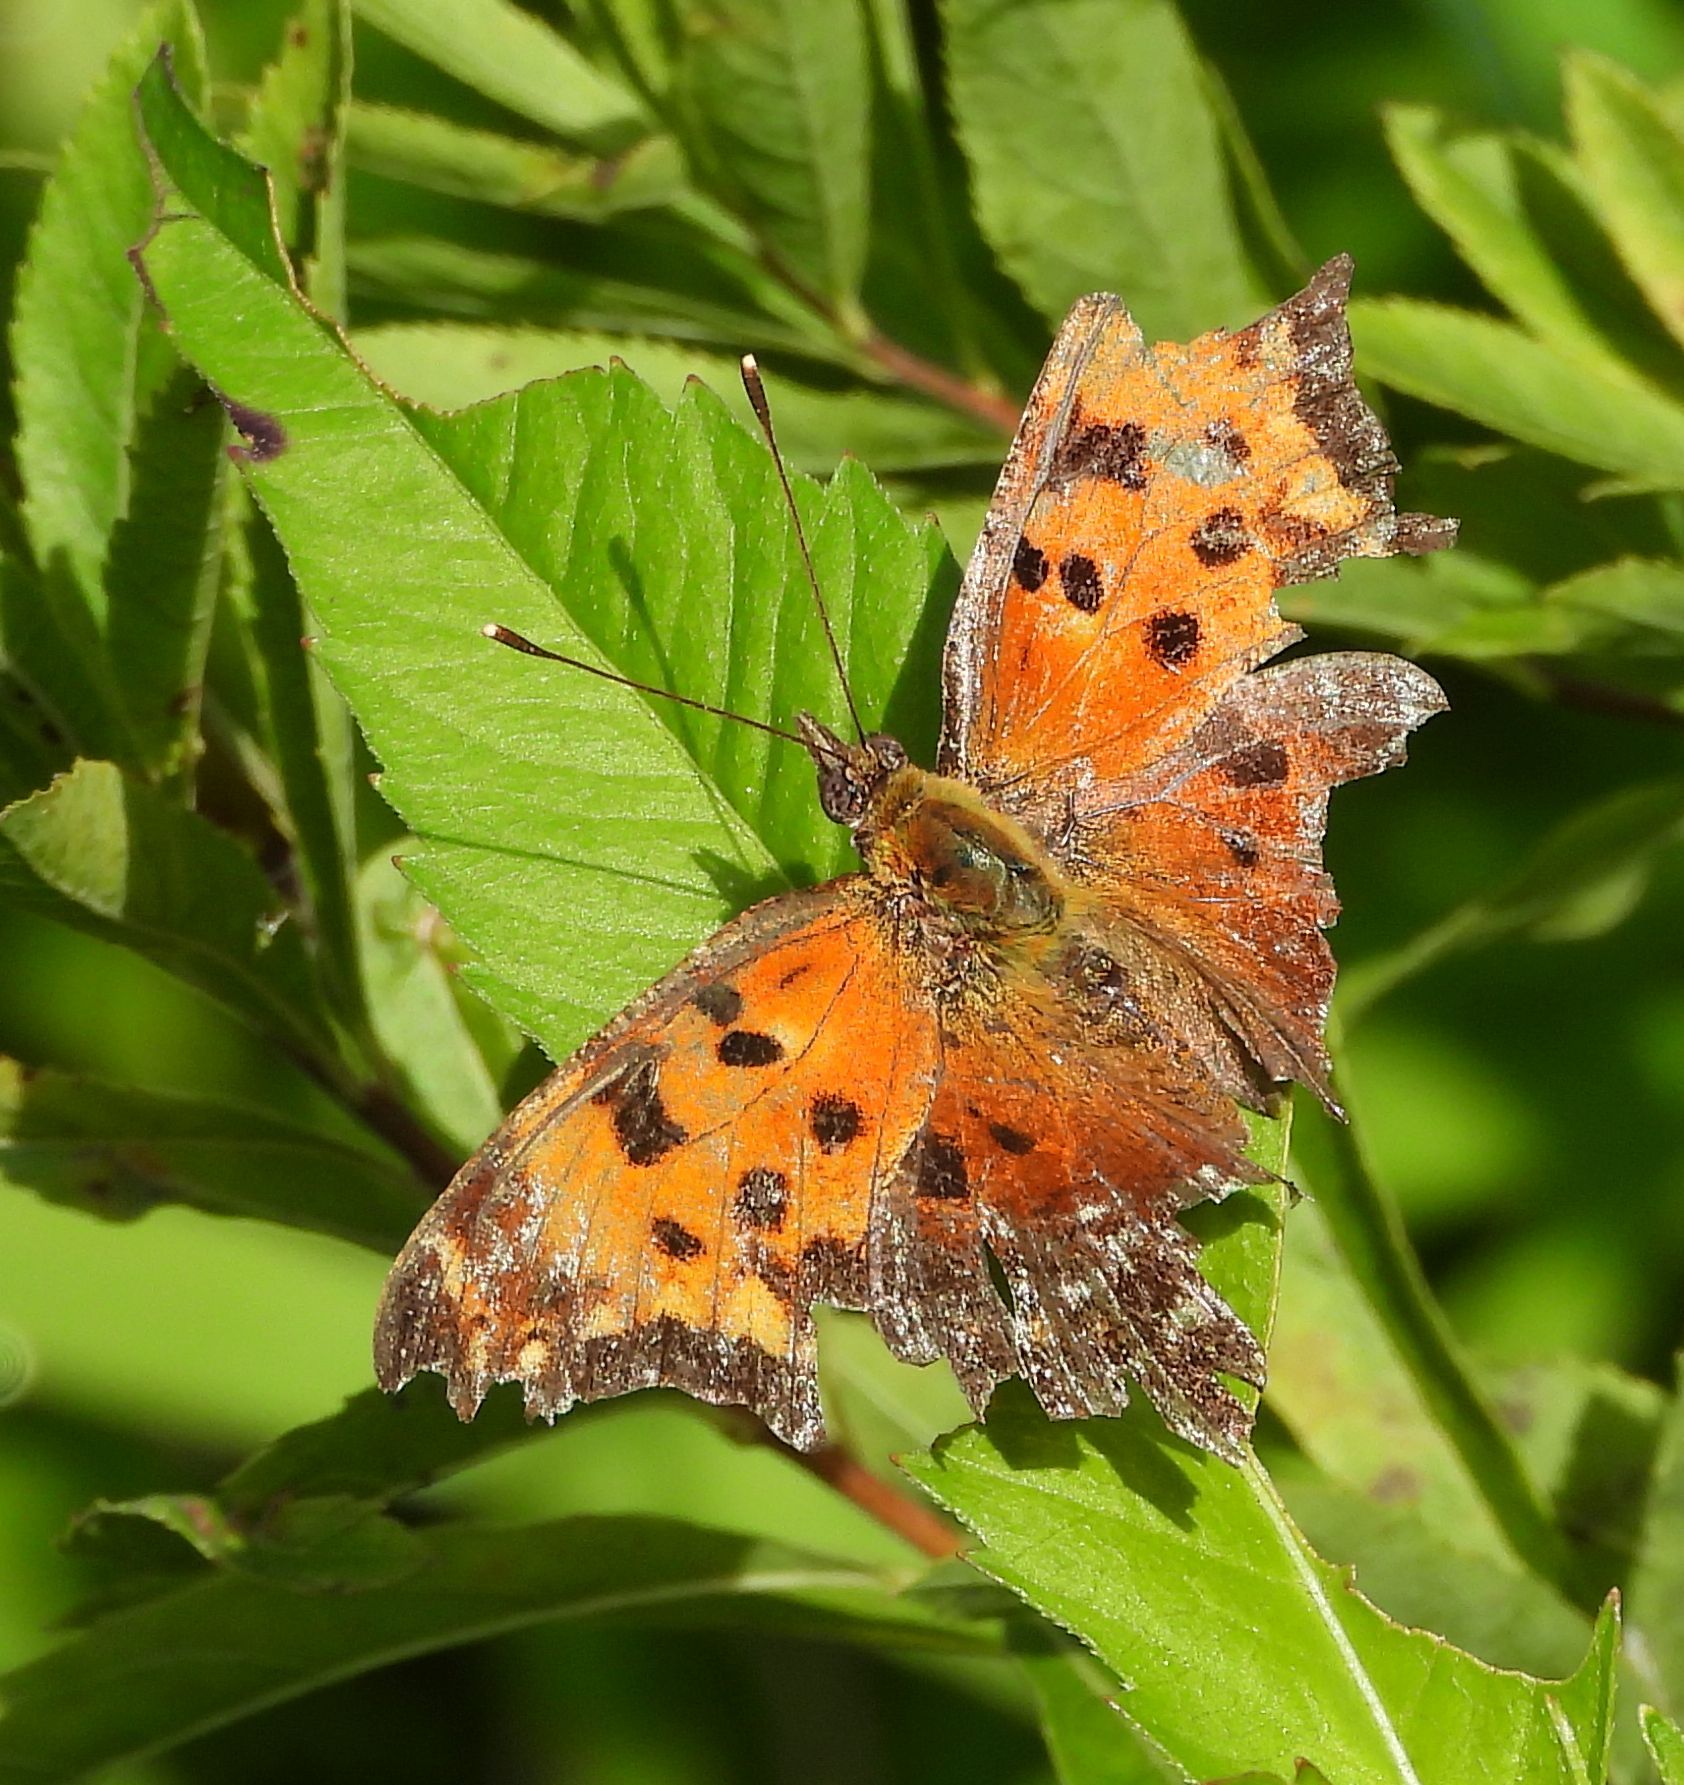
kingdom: Animalia
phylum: Arthropoda
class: Insecta
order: Lepidoptera
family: Nymphalidae
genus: Polygonia
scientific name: Polygonia progne
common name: Gray comma
